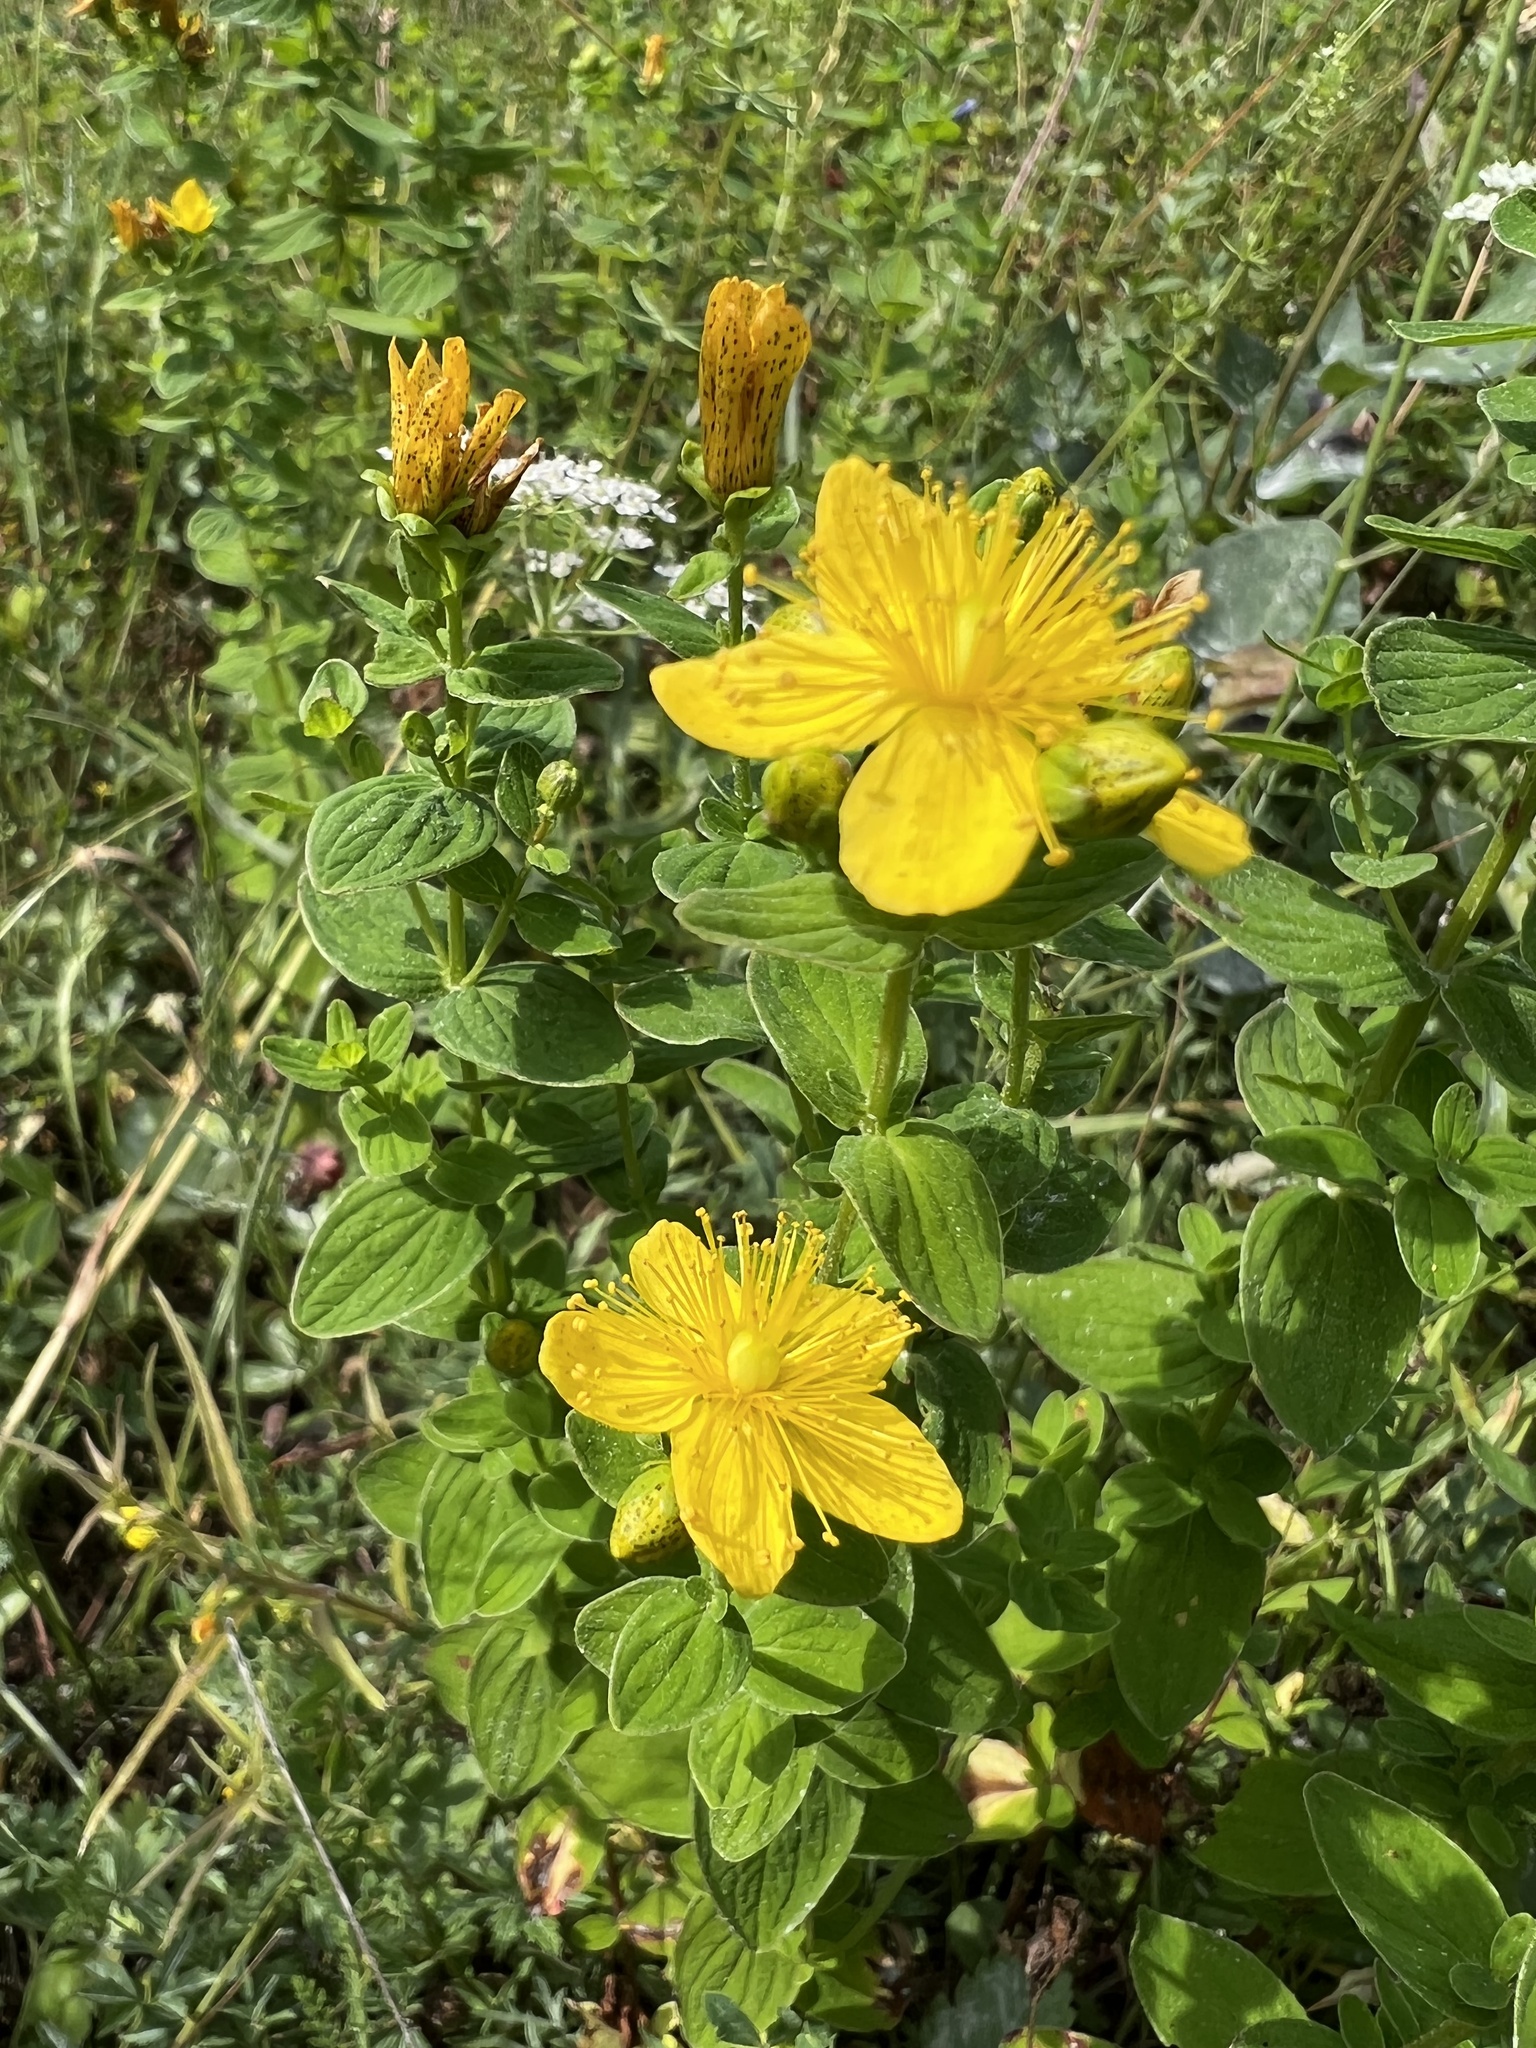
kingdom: Plantae
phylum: Tracheophyta
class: Magnoliopsida
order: Malpighiales
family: Hypericaceae
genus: Hypericum
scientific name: Hypericum maculatum
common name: Imperforate st. john's-wort
